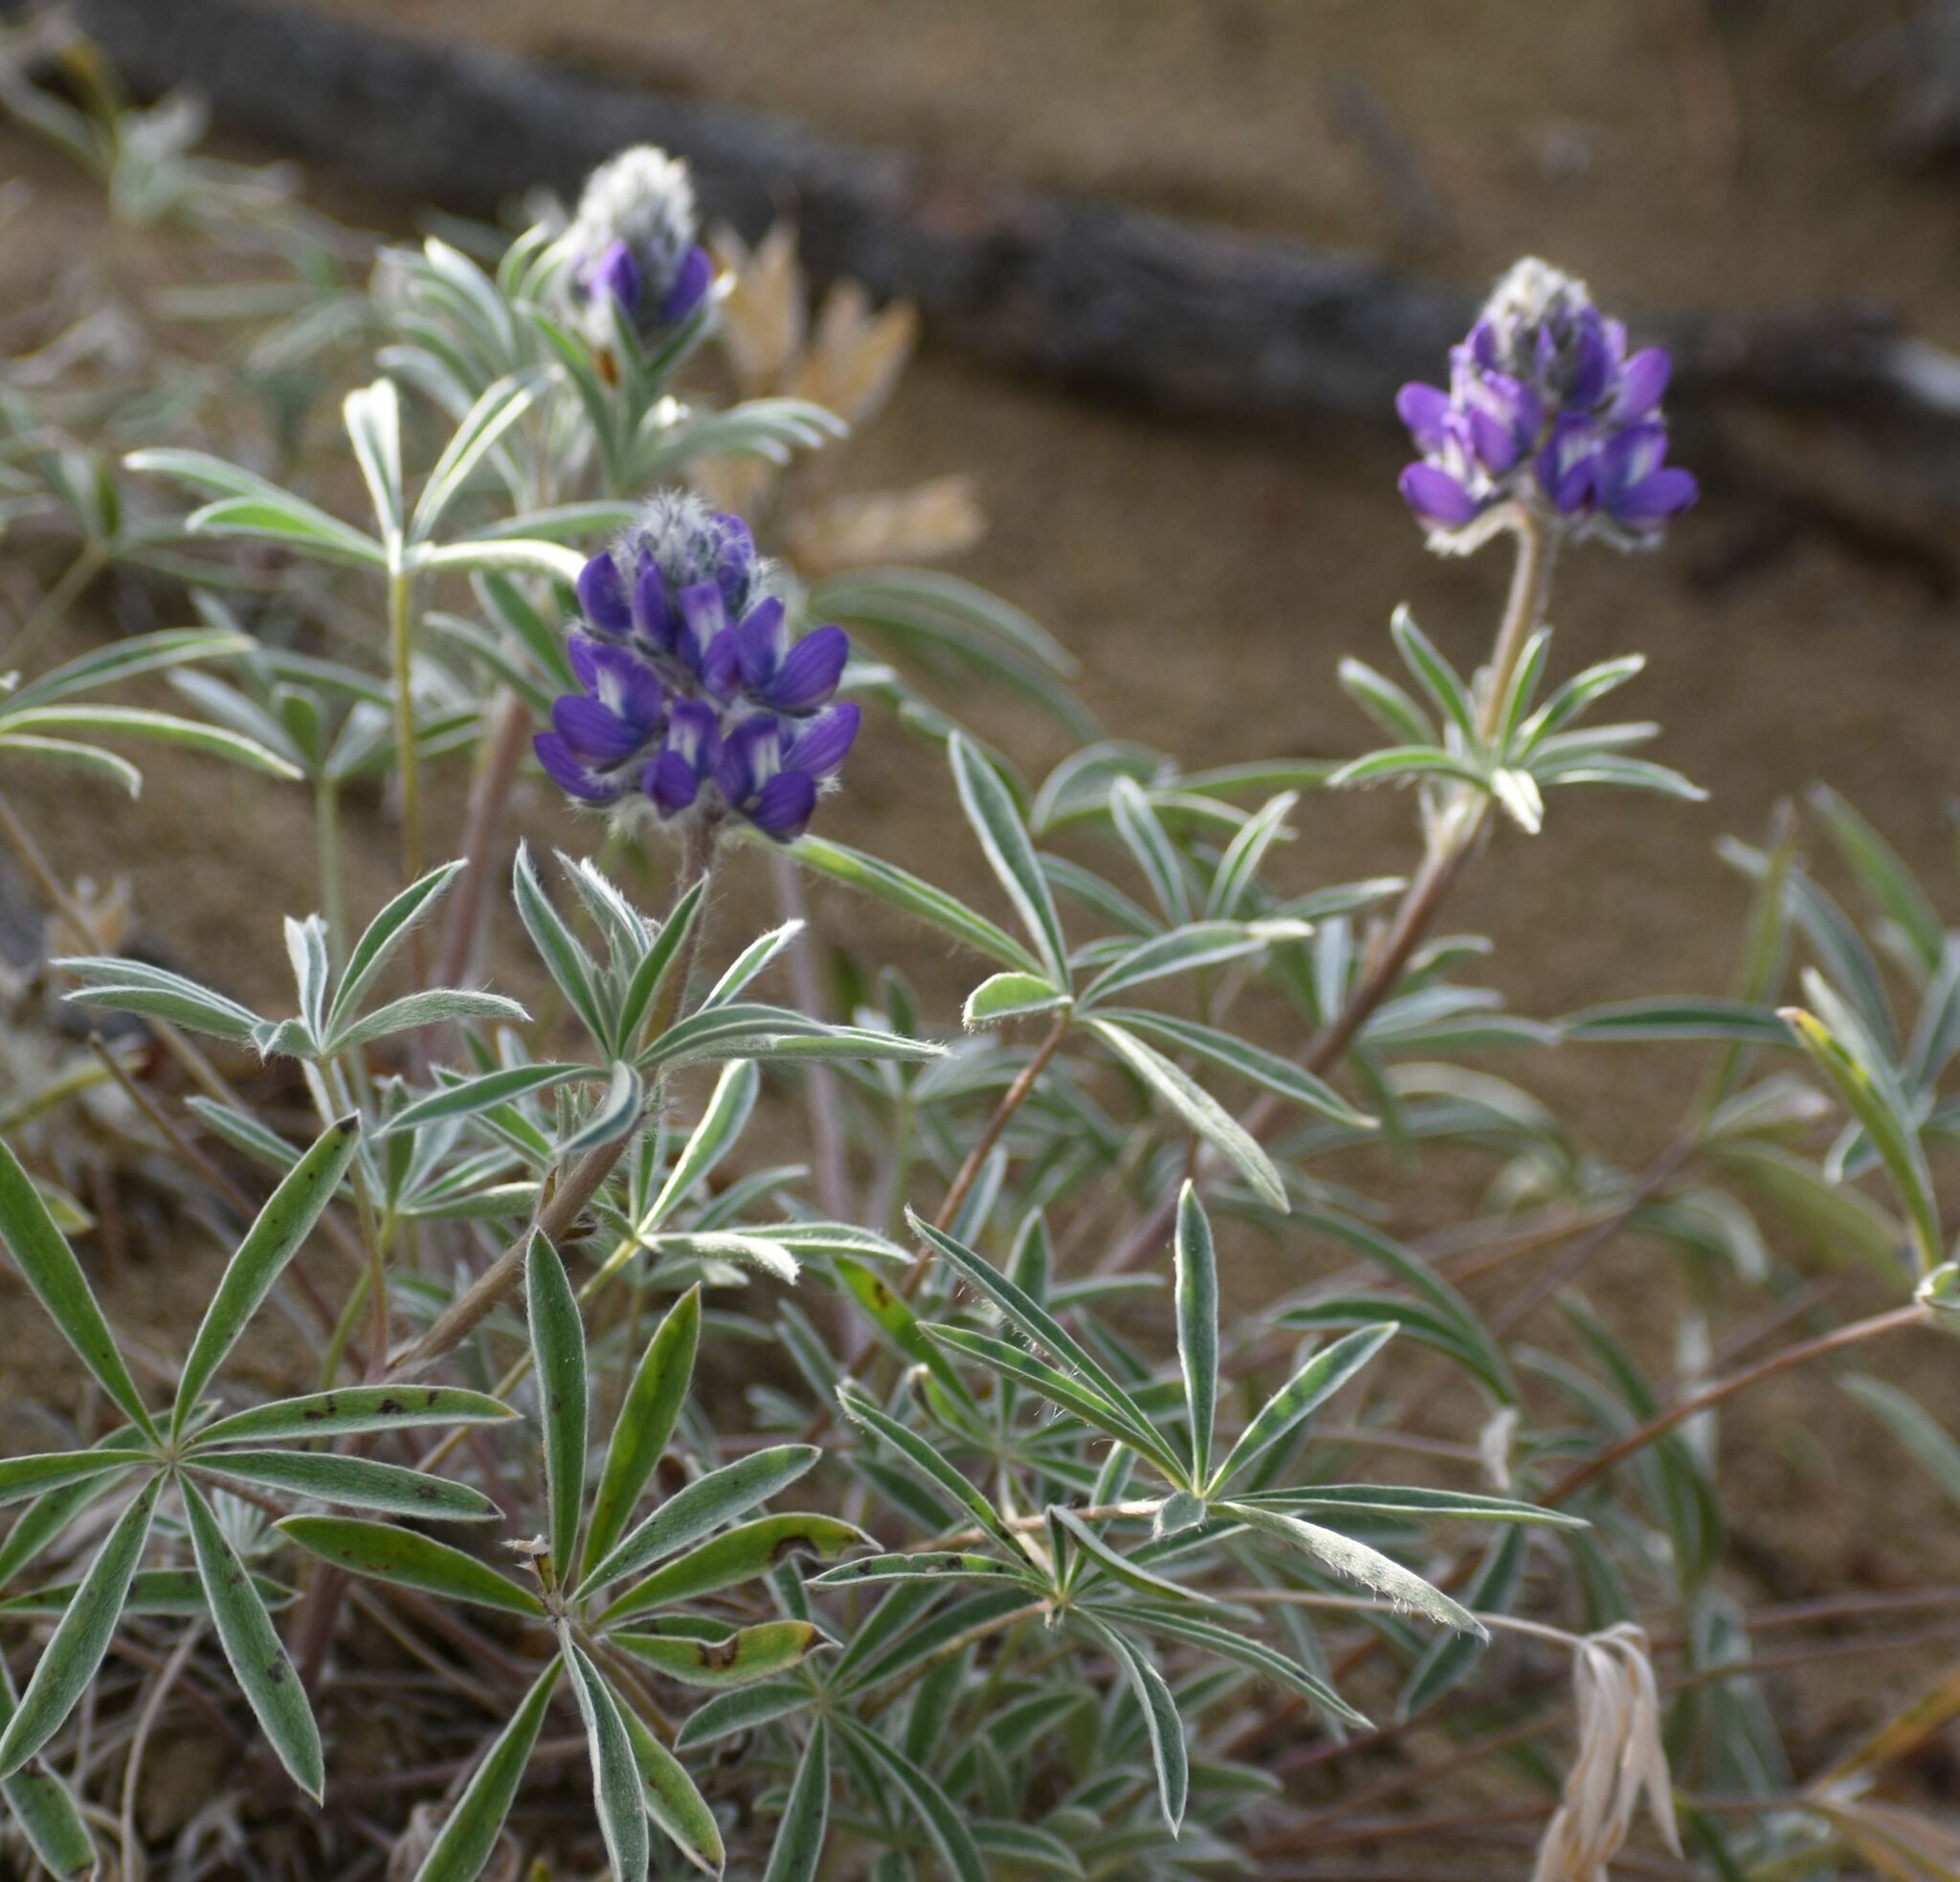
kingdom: Plantae
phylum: Tracheophyta
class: Magnoliopsida
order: Fabales
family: Fabaceae
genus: Lupinus
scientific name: Lupinus kuschei
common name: Kusche's lupine
